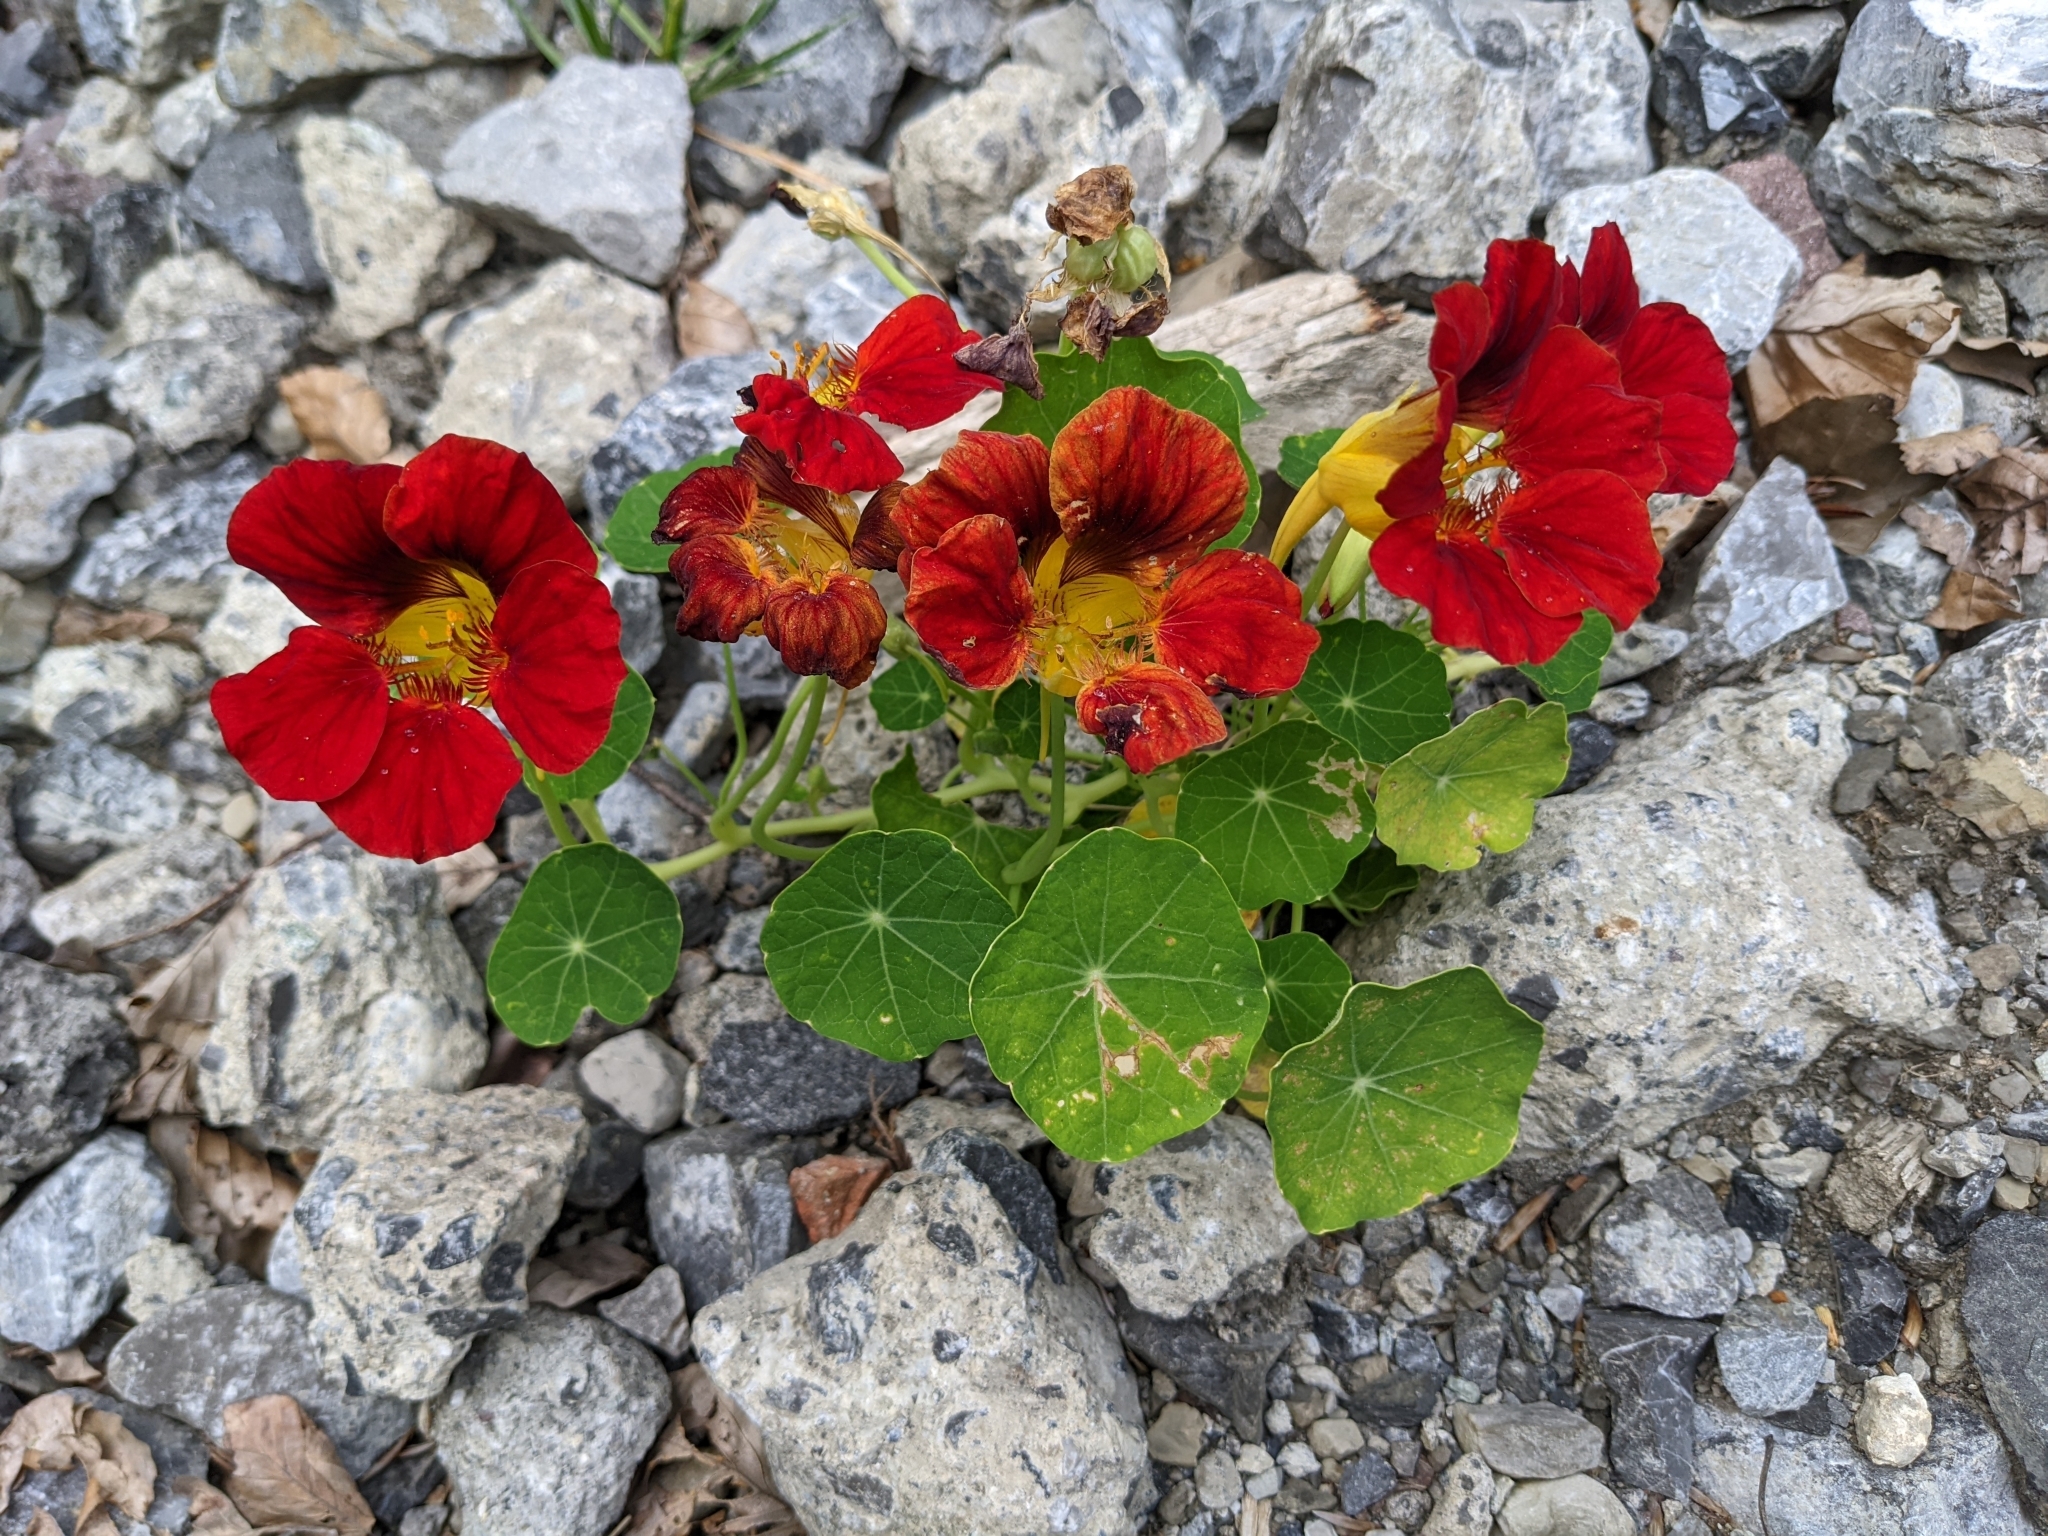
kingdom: Plantae
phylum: Tracheophyta
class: Magnoliopsida
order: Brassicales
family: Tropaeolaceae
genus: Tropaeolum
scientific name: Tropaeolum majus
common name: Nasturtium
